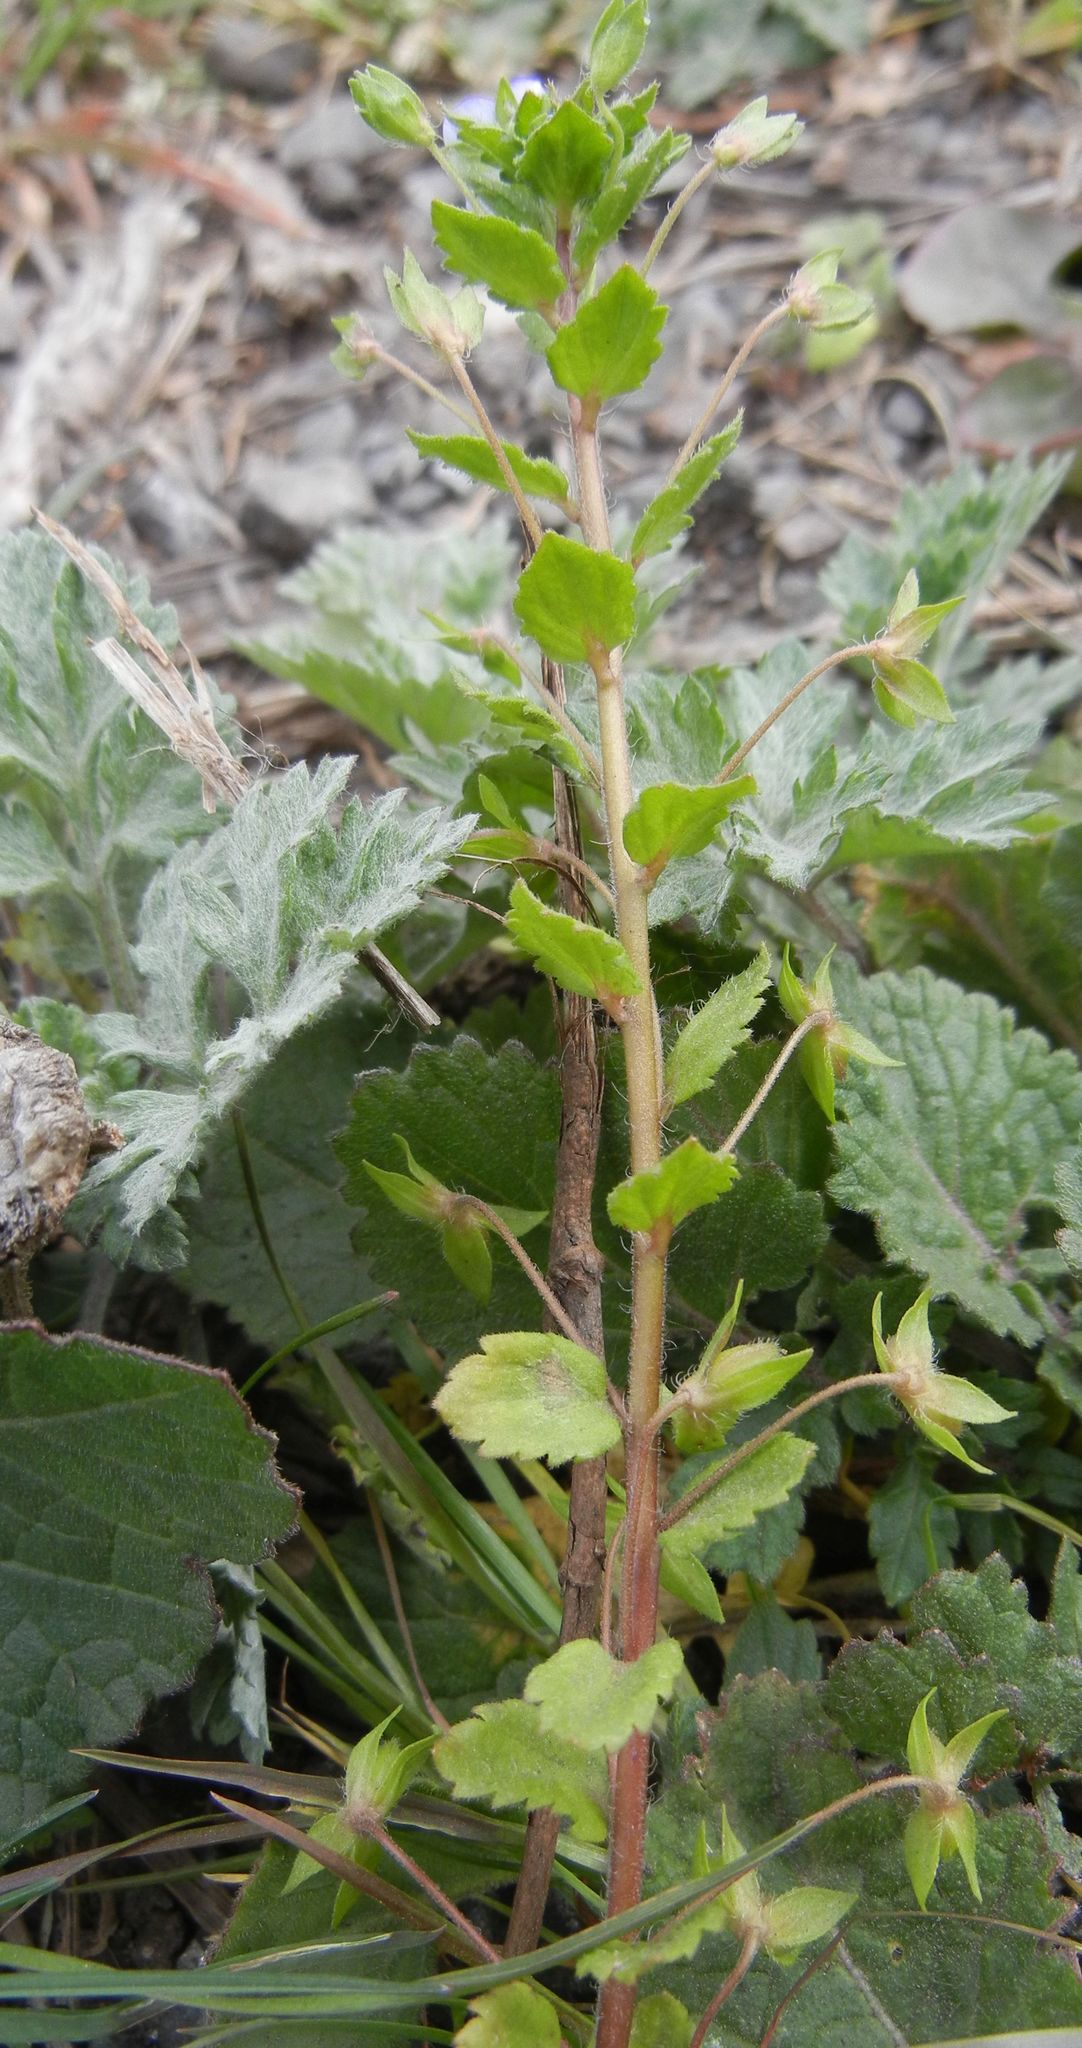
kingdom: Plantae
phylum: Tracheophyta
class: Magnoliopsida
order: Lamiales
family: Plantaginaceae
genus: Veronica
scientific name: Veronica persica
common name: Common field-speedwell
